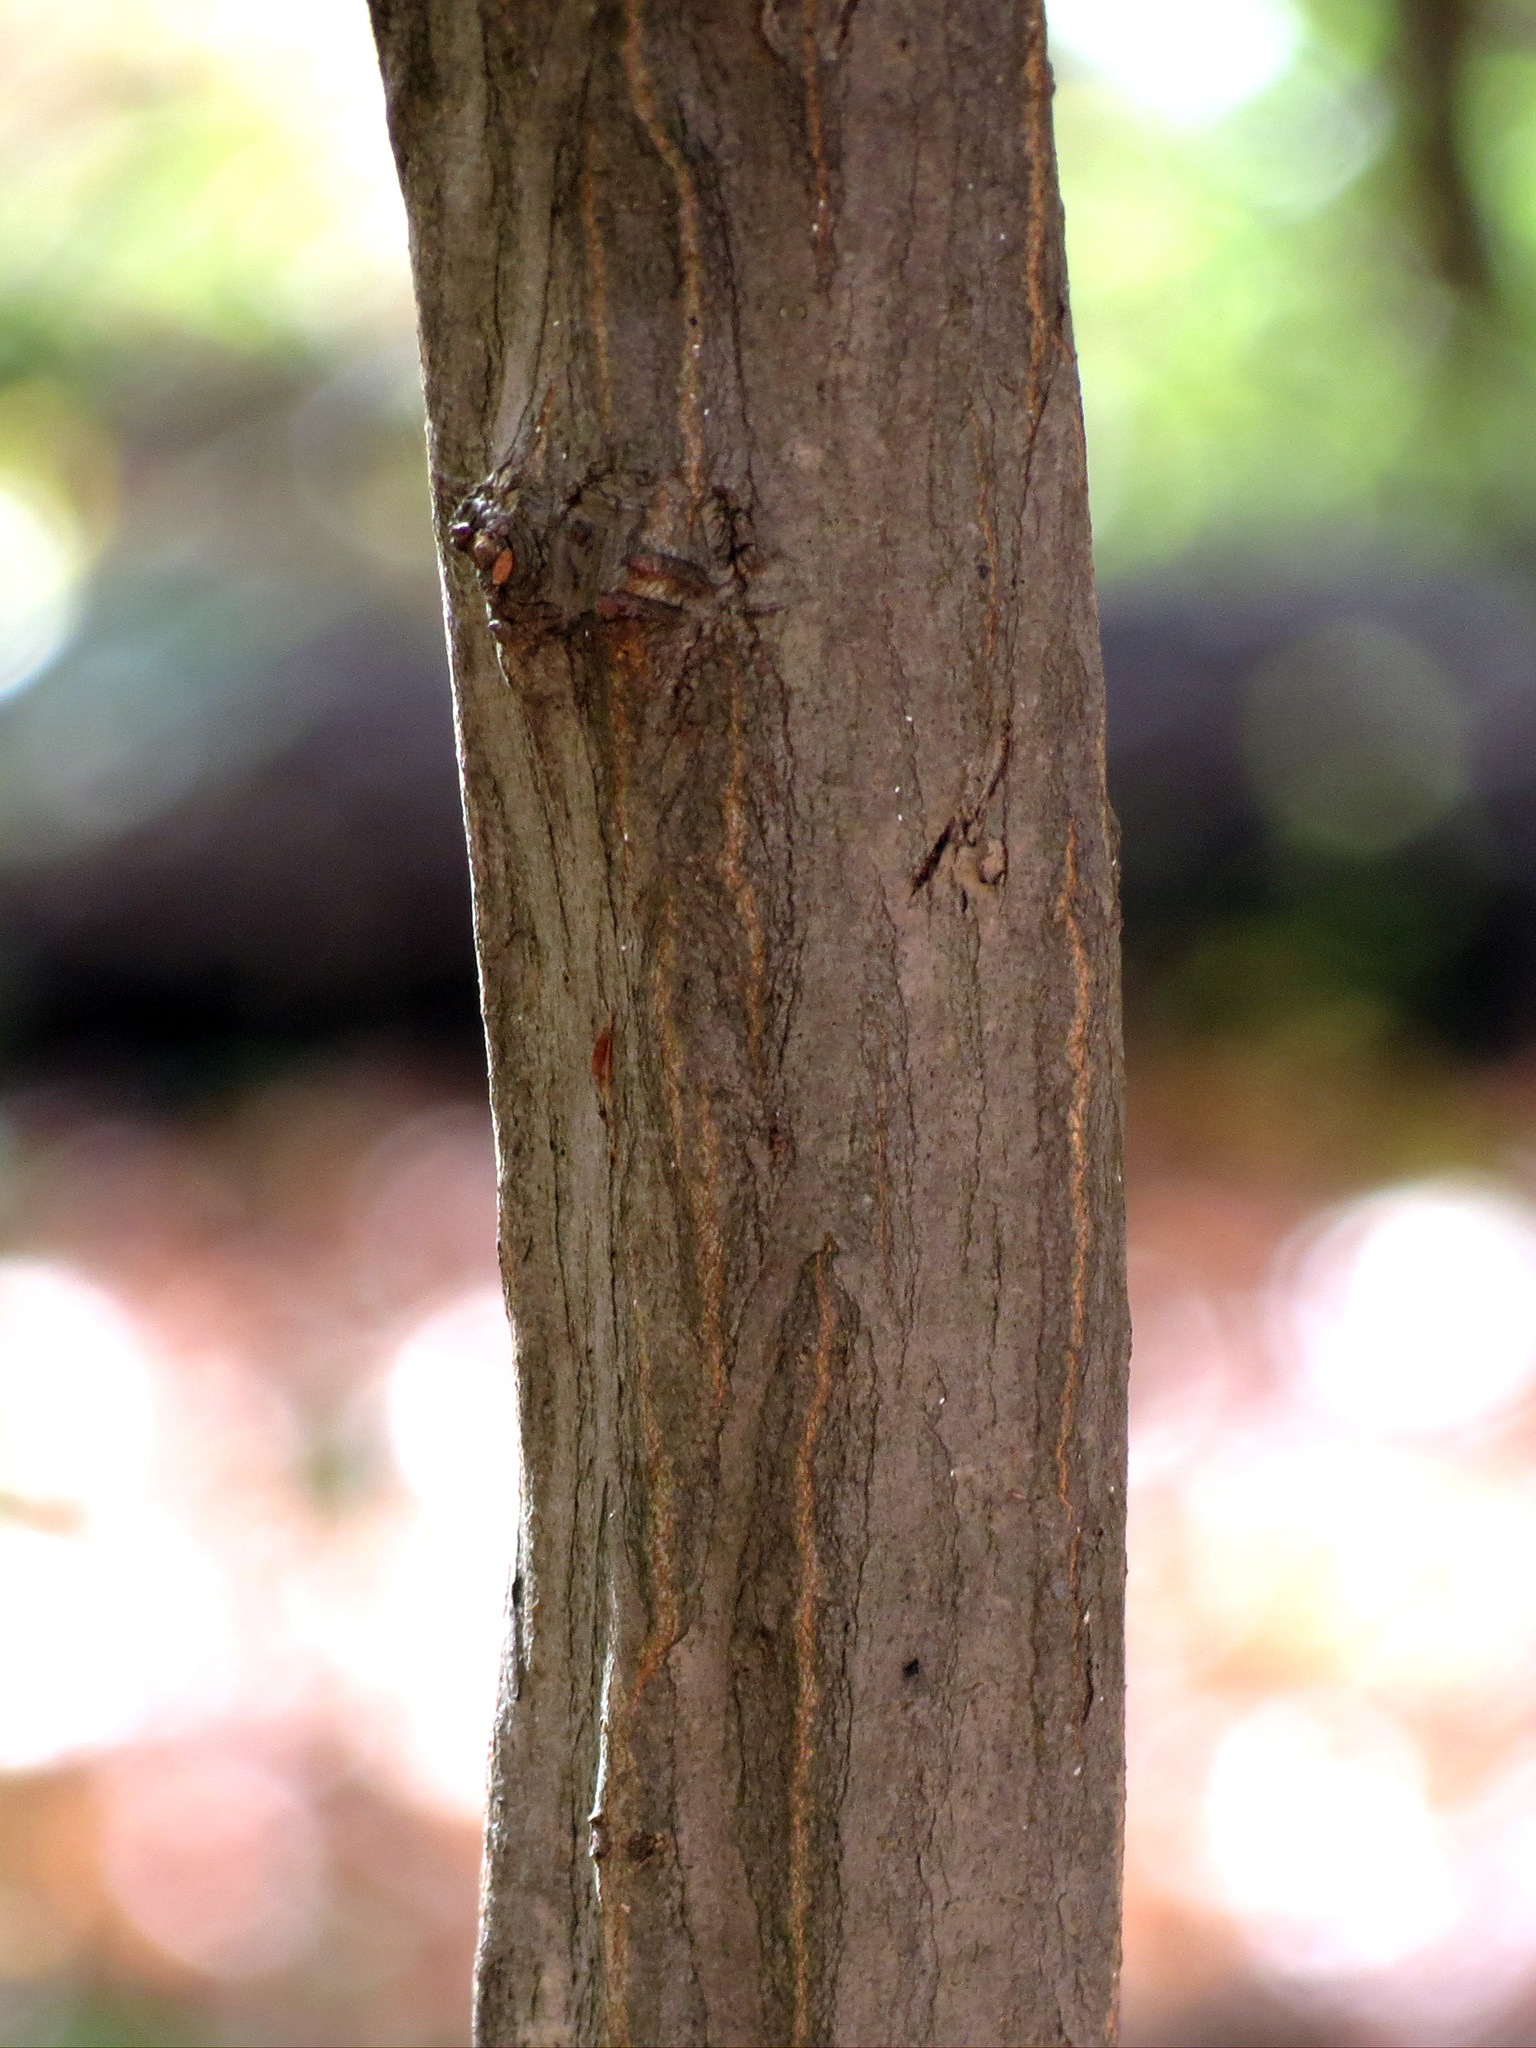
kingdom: Plantae
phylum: Tracheophyta
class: Magnoliopsida
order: Fagales
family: Betulaceae
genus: Carpinus
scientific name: Carpinus caroliniana
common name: American hornbeam
